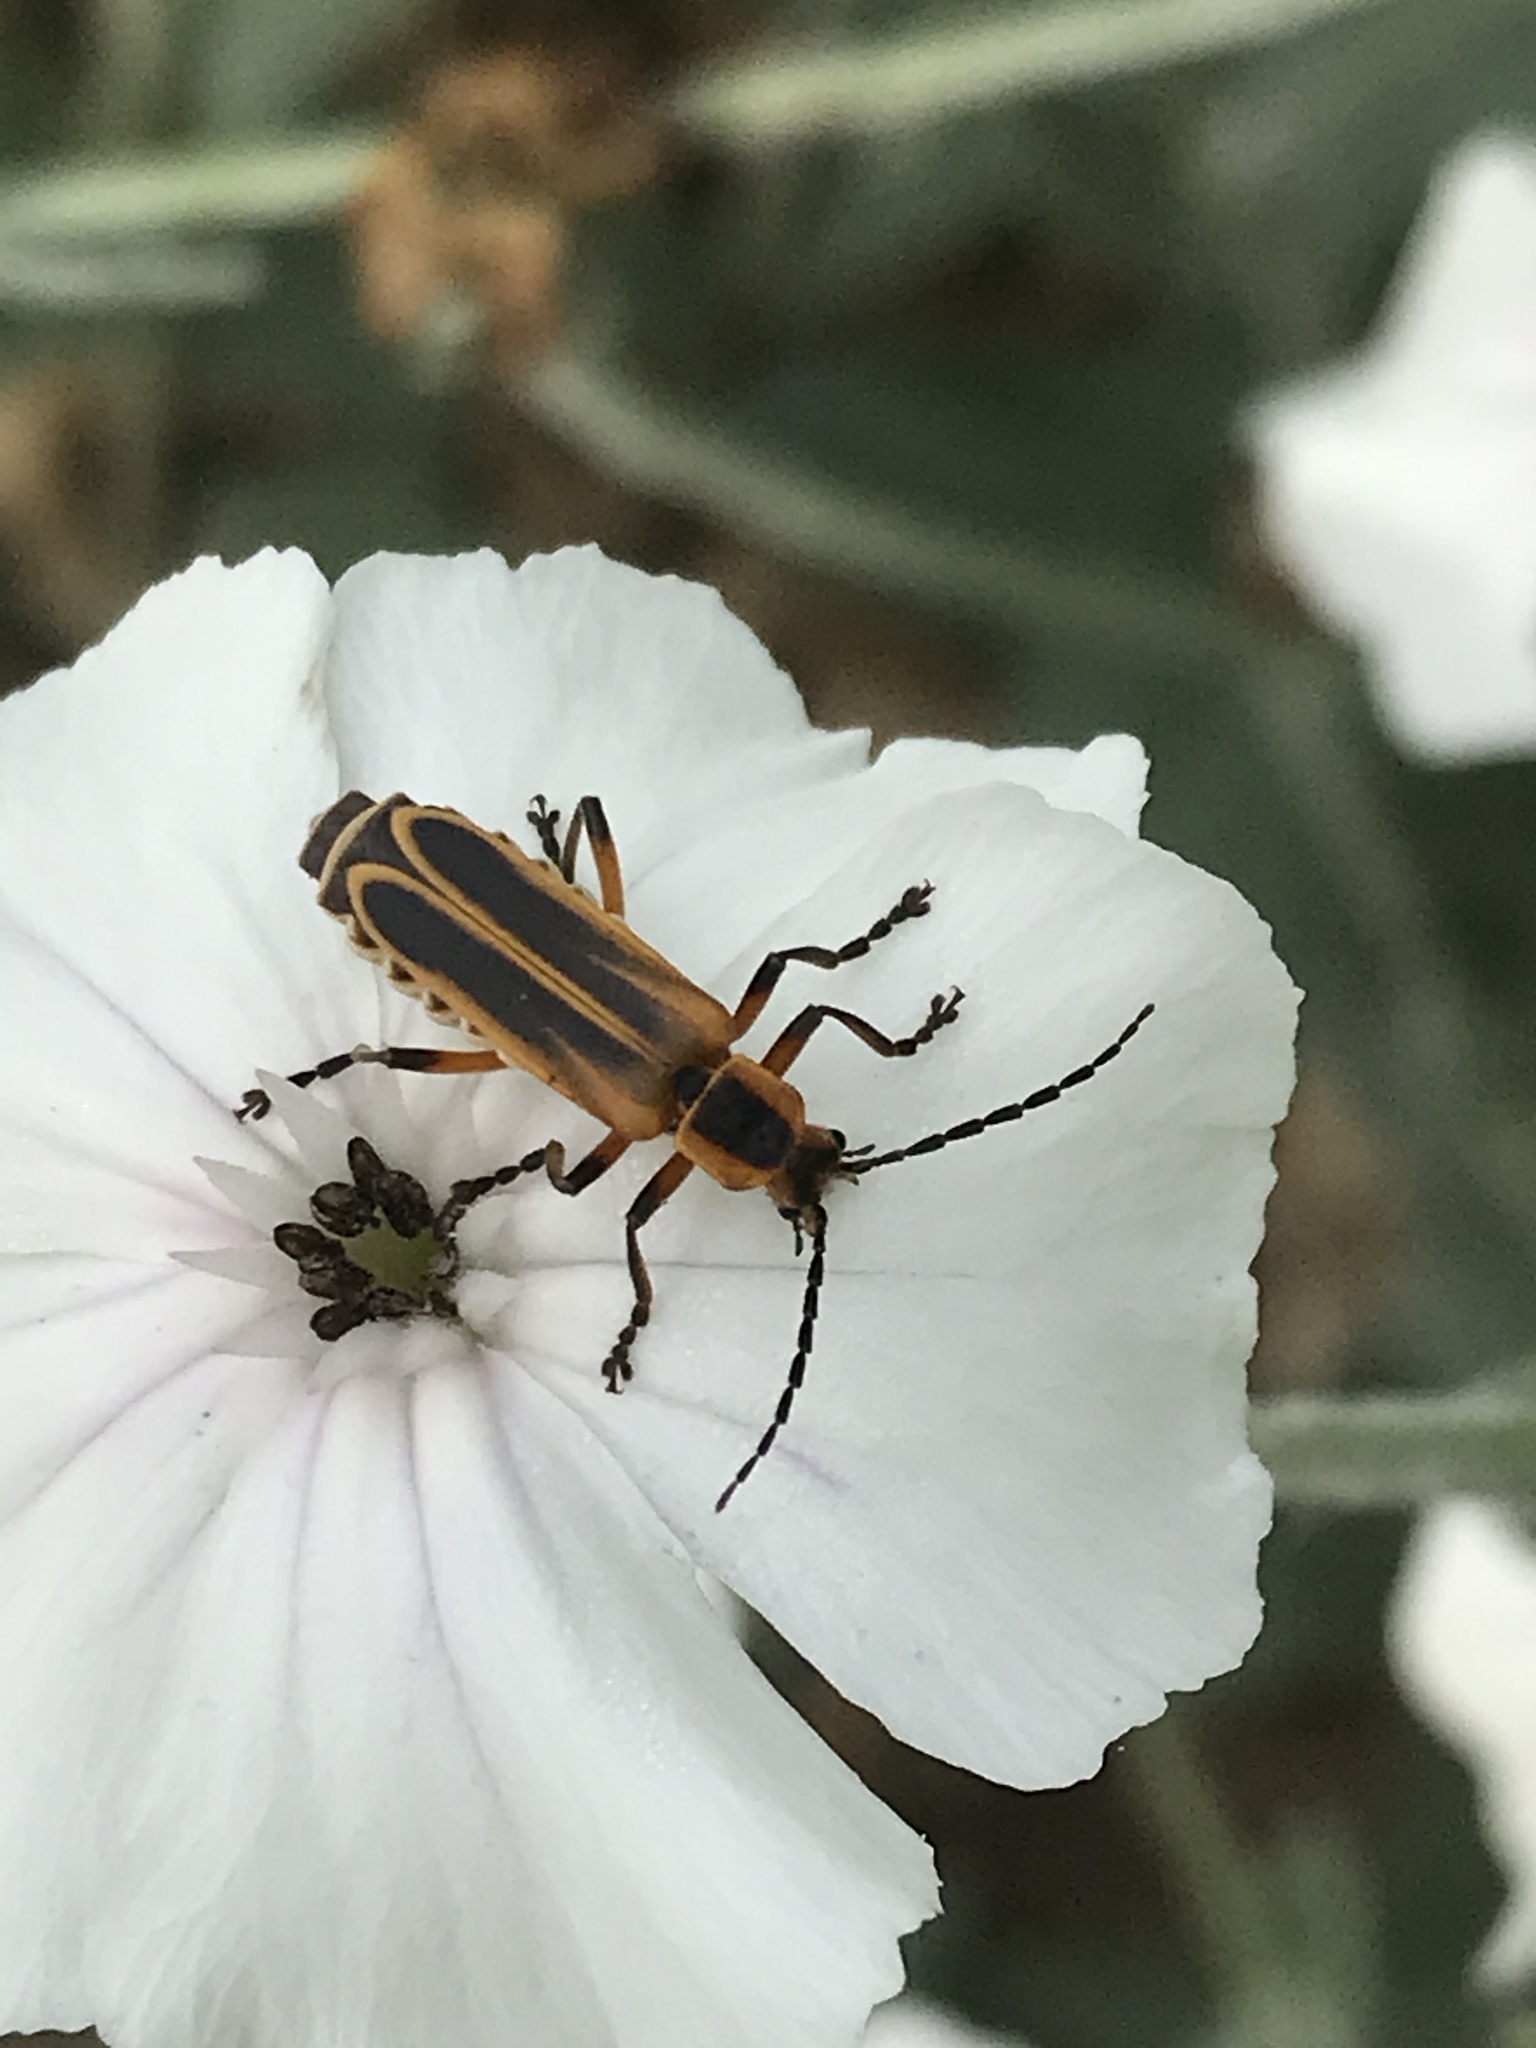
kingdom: Animalia
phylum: Arthropoda
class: Insecta
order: Coleoptera
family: Cantharidae
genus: Chauliognathus
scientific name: Chauliognathus marginatus
